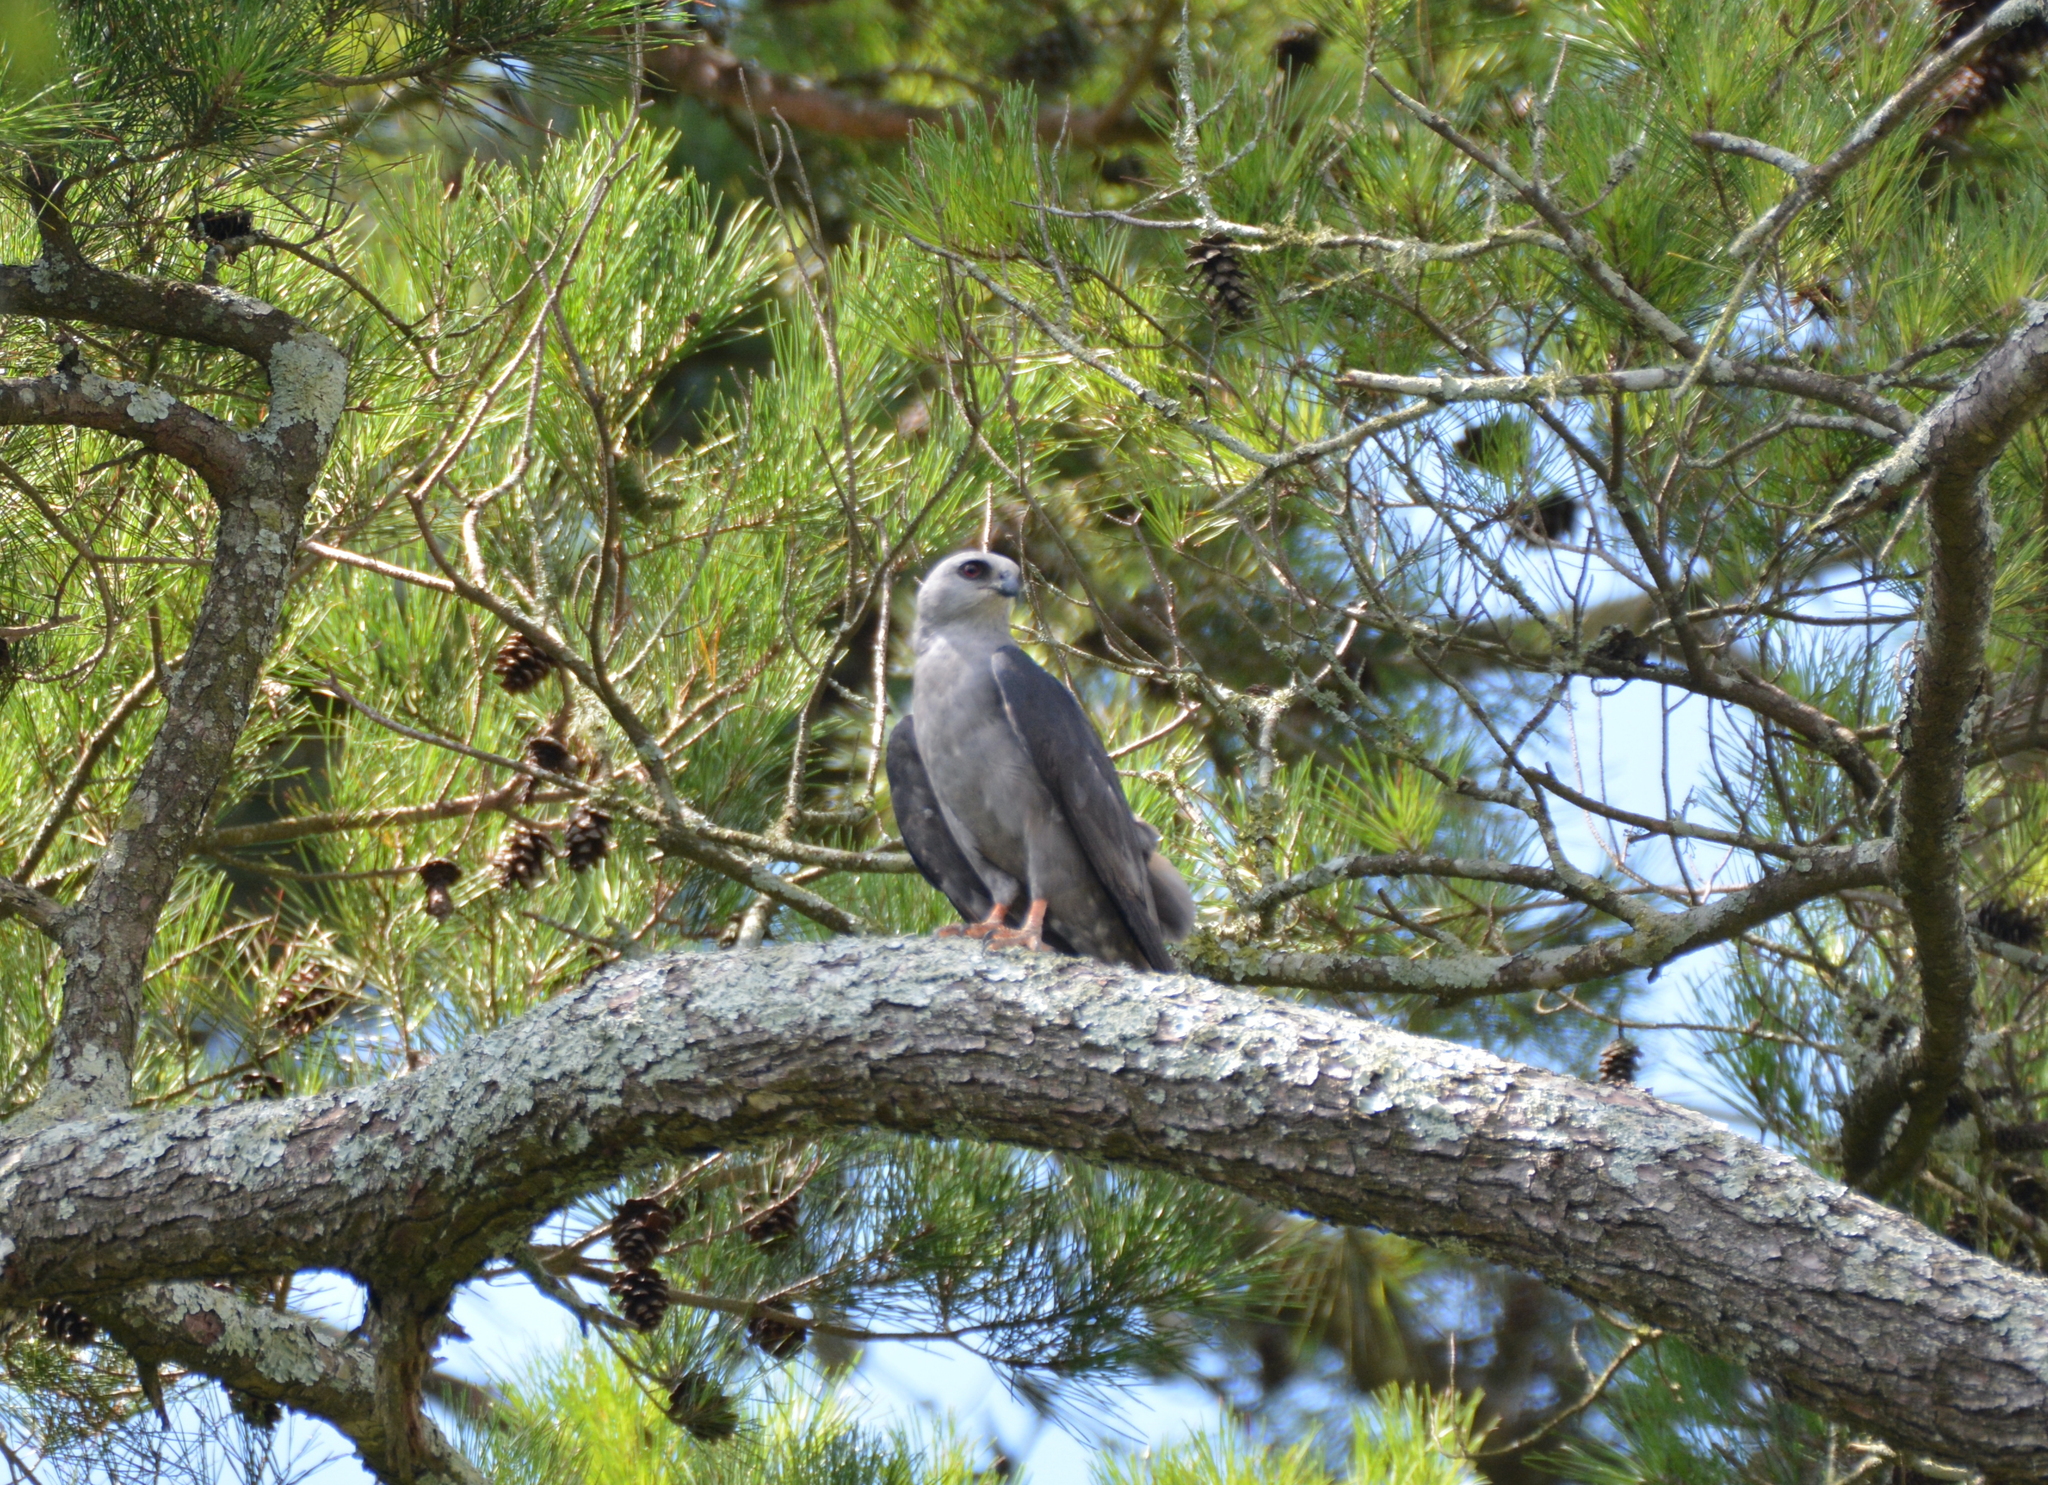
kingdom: Animalia
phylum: Chordata
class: Aves
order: Accipitriformes
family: Accipitridae
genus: Ictinia
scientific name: Ictinia mississippiensis
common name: Mississippi kite
